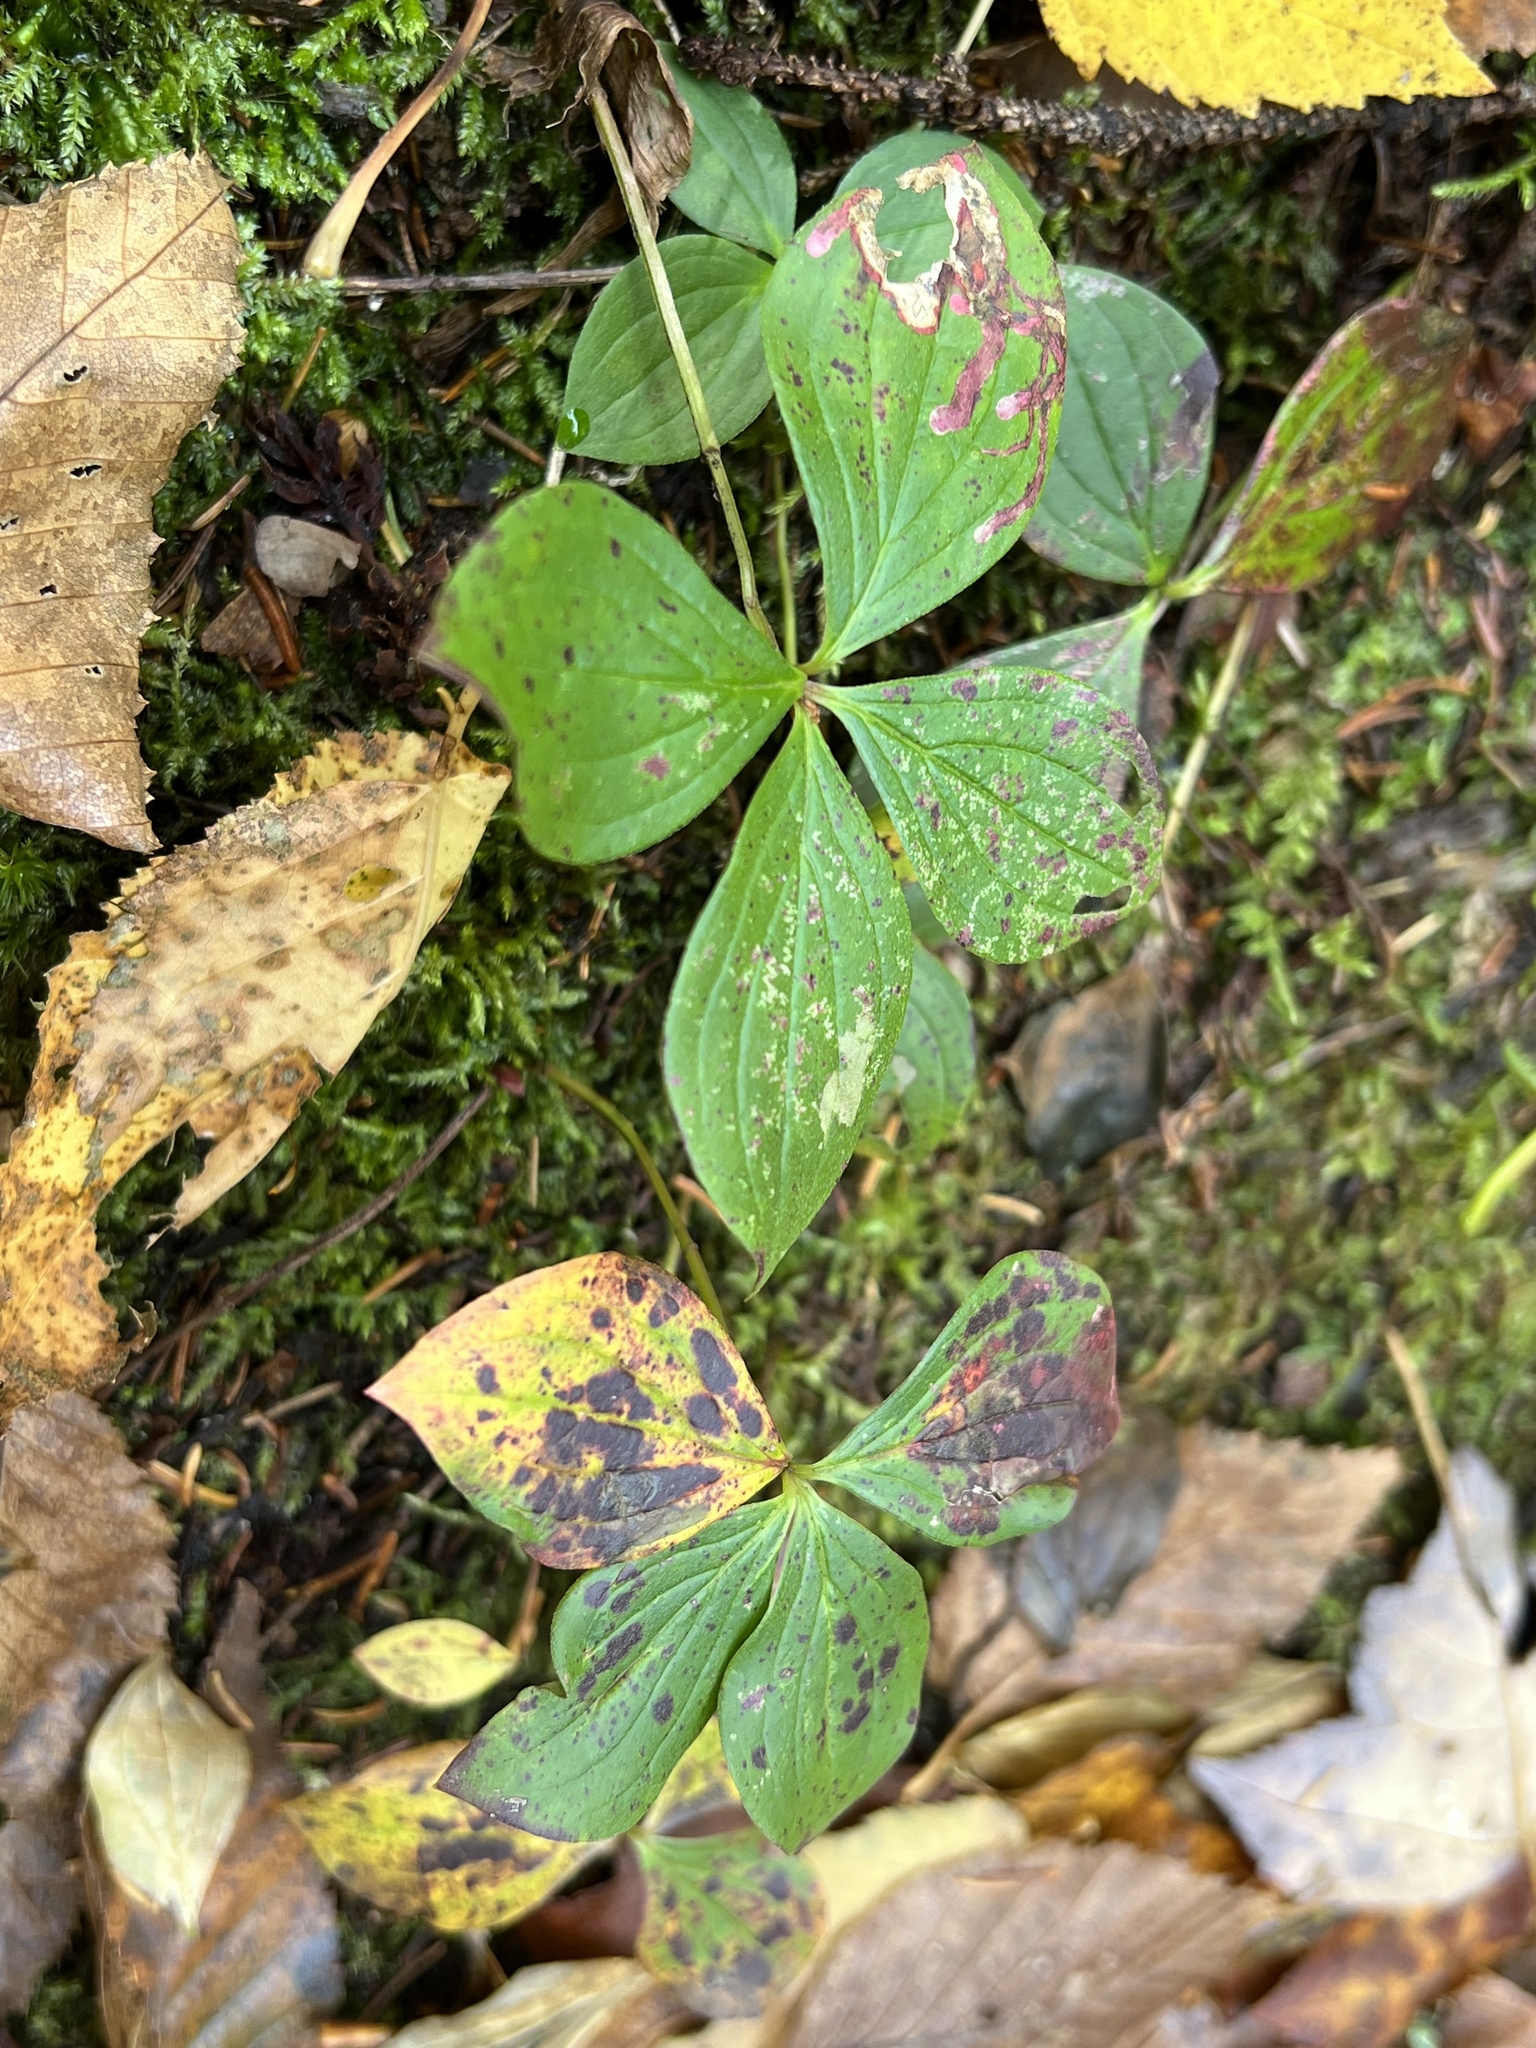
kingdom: Plantae
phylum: Tracheophyta
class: Magnoliopsida
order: Cornales
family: Cornaceae
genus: Cornus
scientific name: Cornus canadensis
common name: Creeping dogwood
